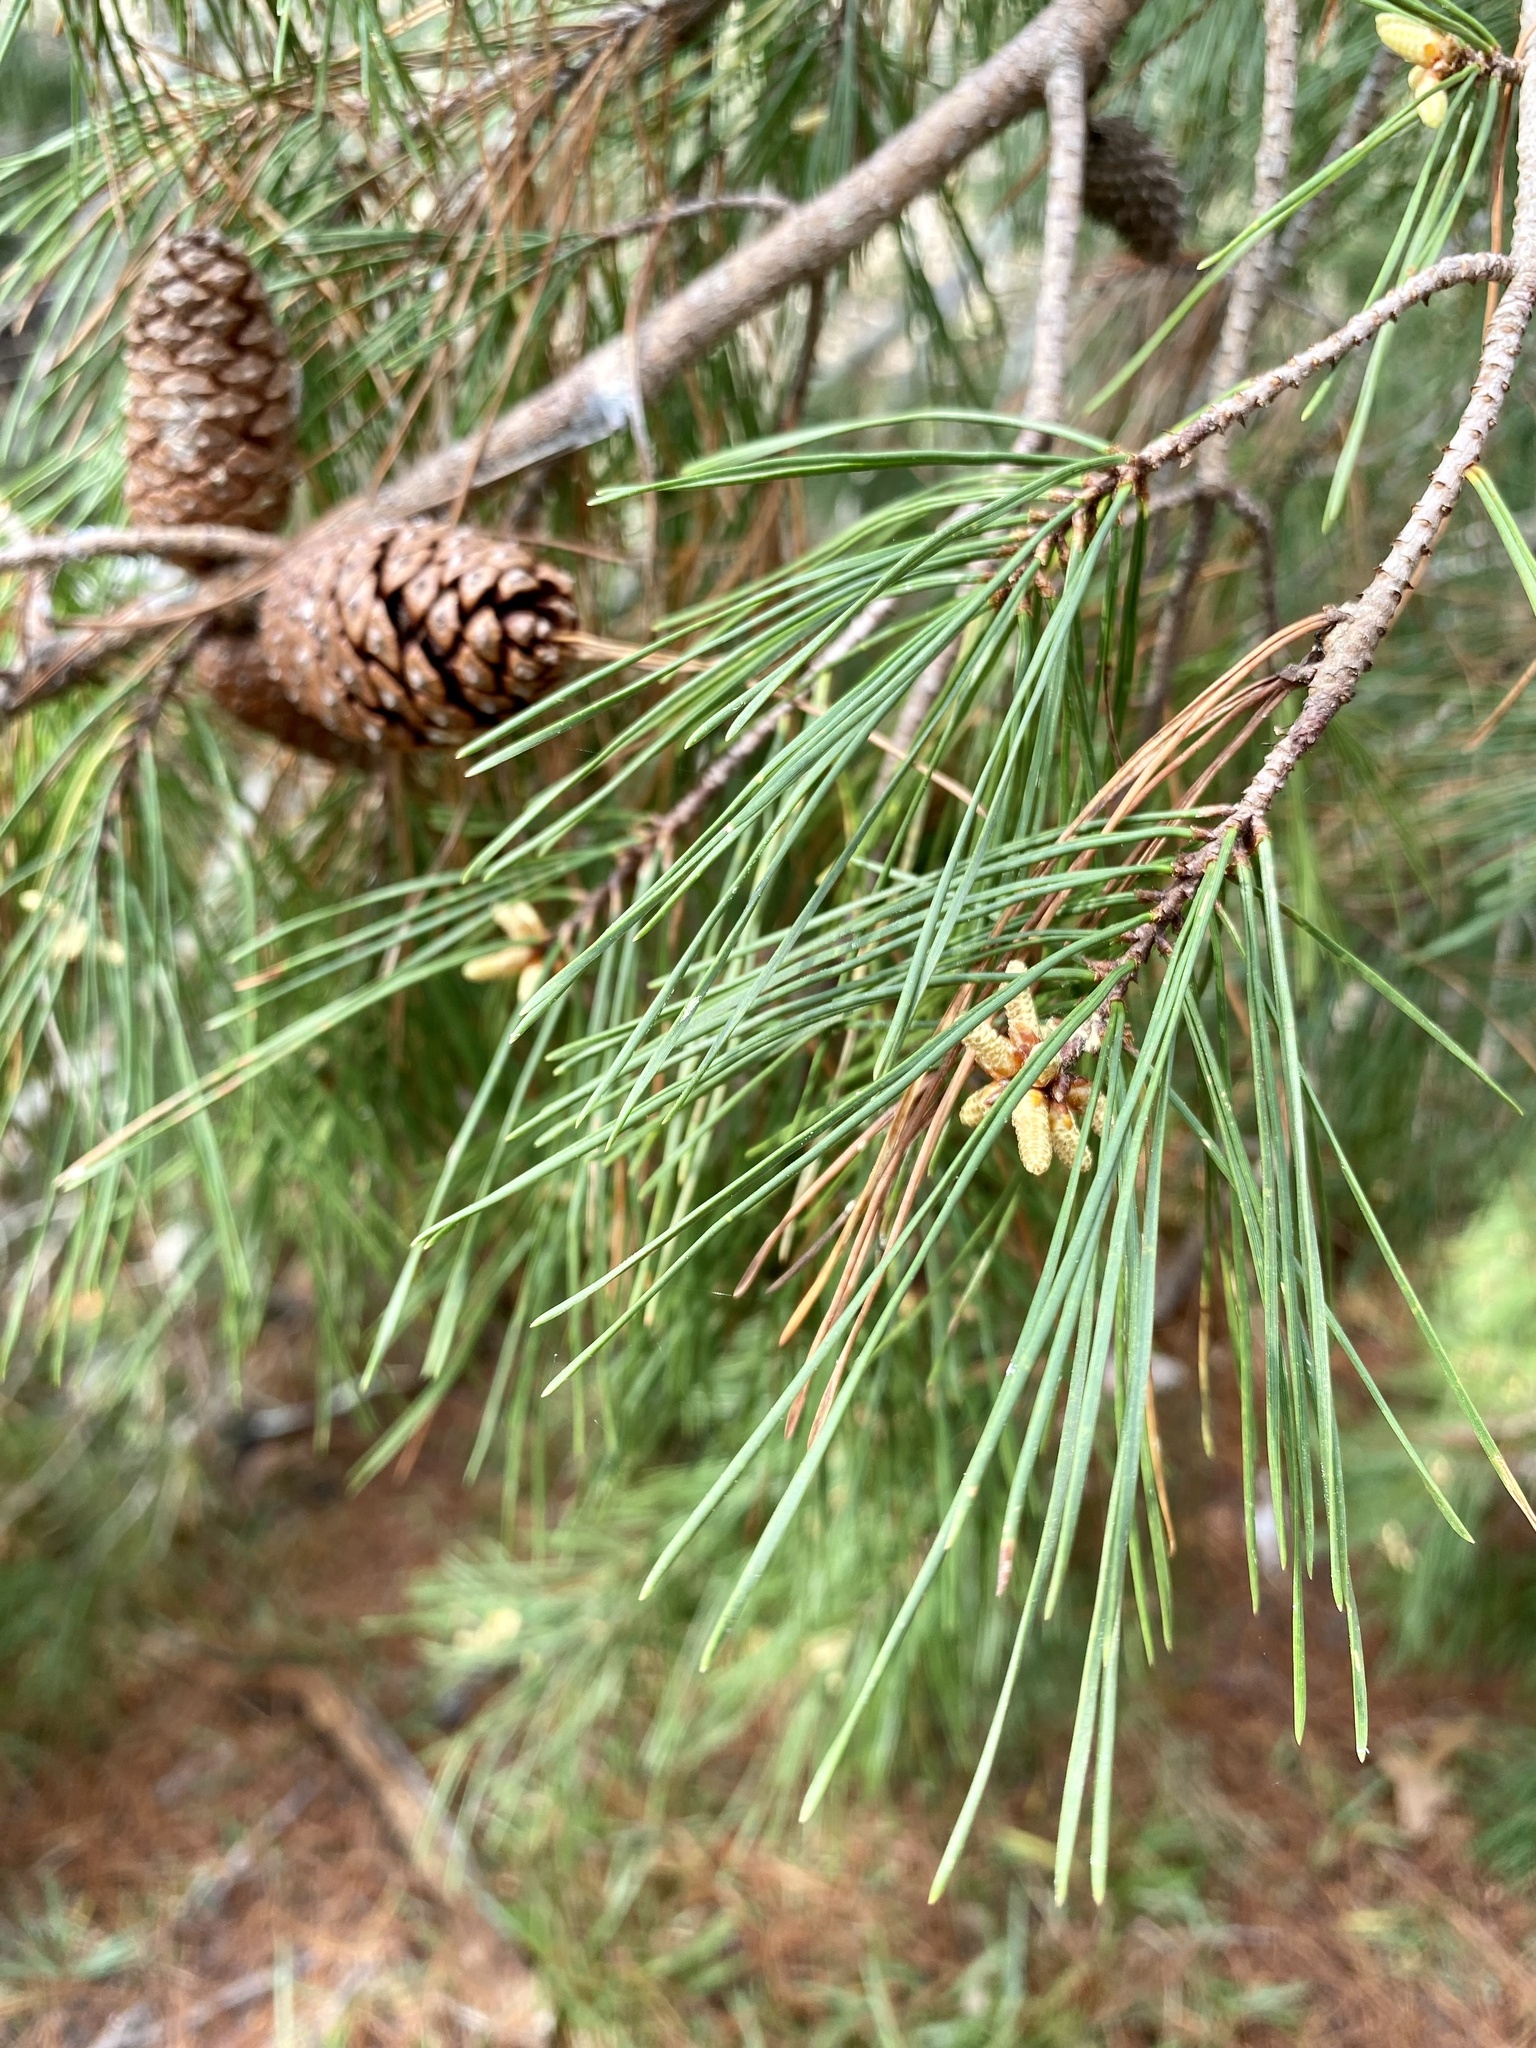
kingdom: Plantae
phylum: Tracheophyta
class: Pinopsida
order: Pinales
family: Pinaceae
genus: Pinus
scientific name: Pinus clausa
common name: Sand pine
